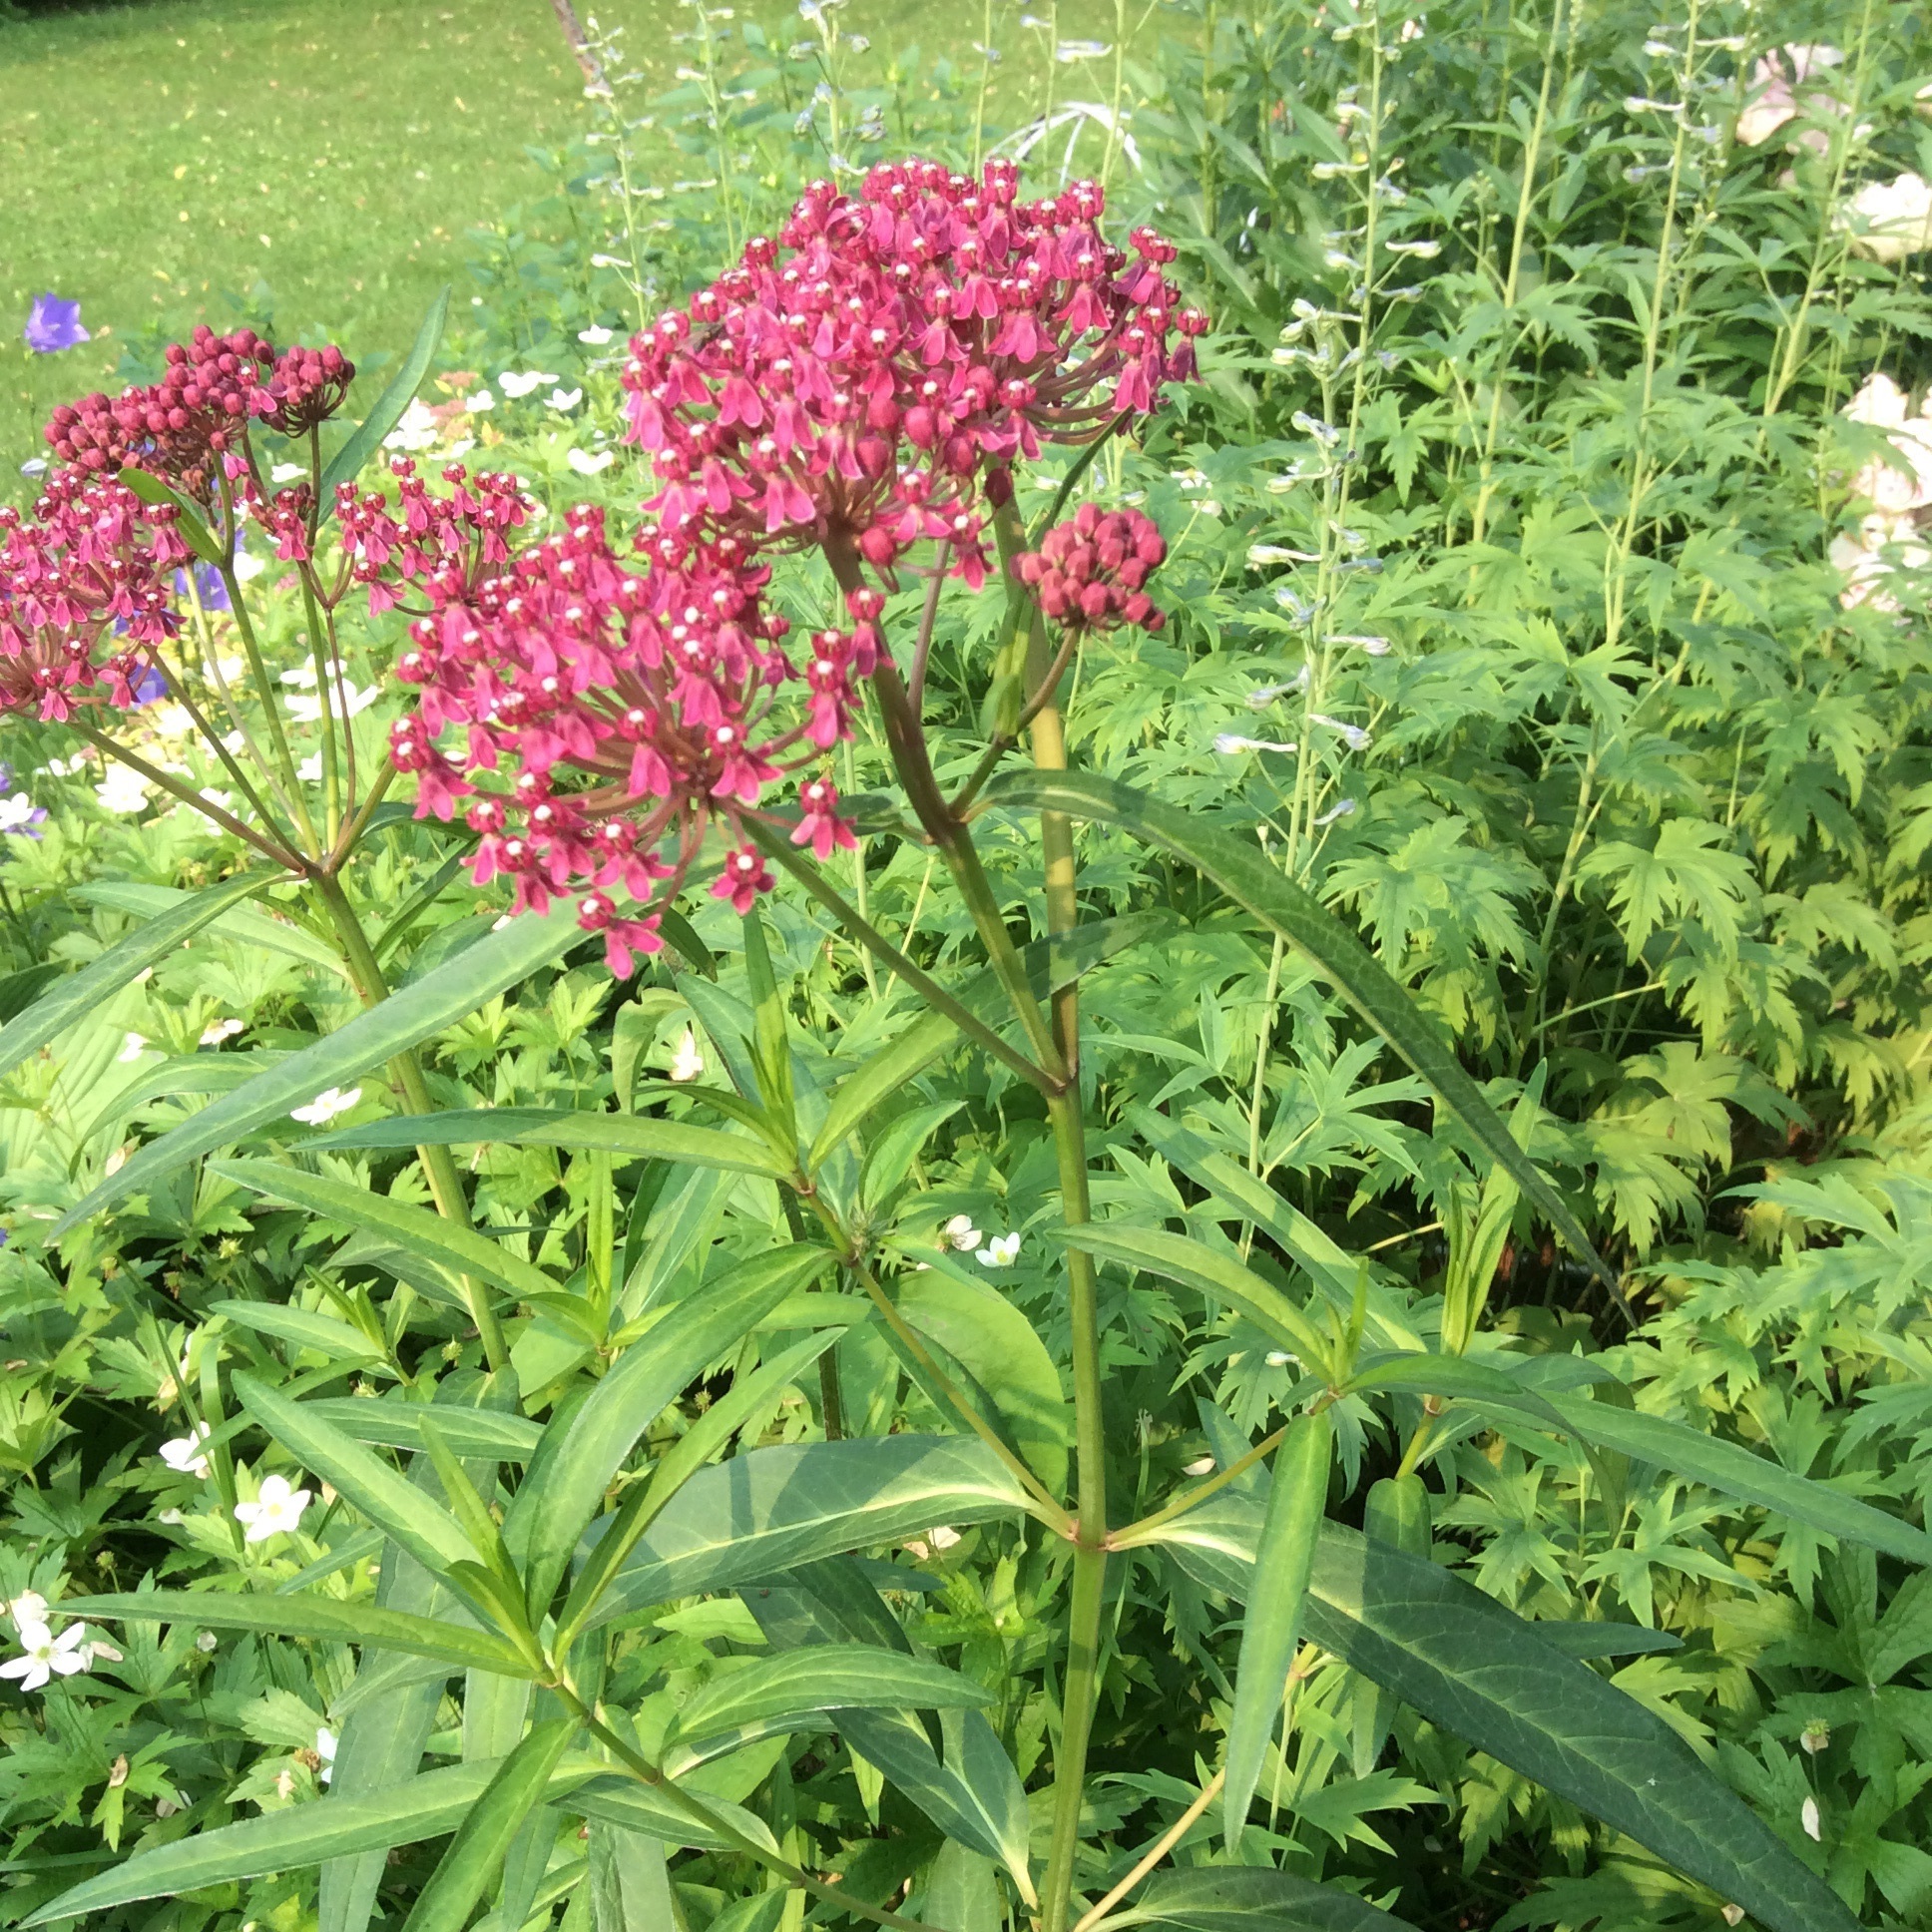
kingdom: Plantae
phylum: Tracheophyta
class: Magnoliopsida
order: Gentianales
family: Apocynaceae
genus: Asclepias
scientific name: Asclepias incarnata
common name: Swamp milkweed
